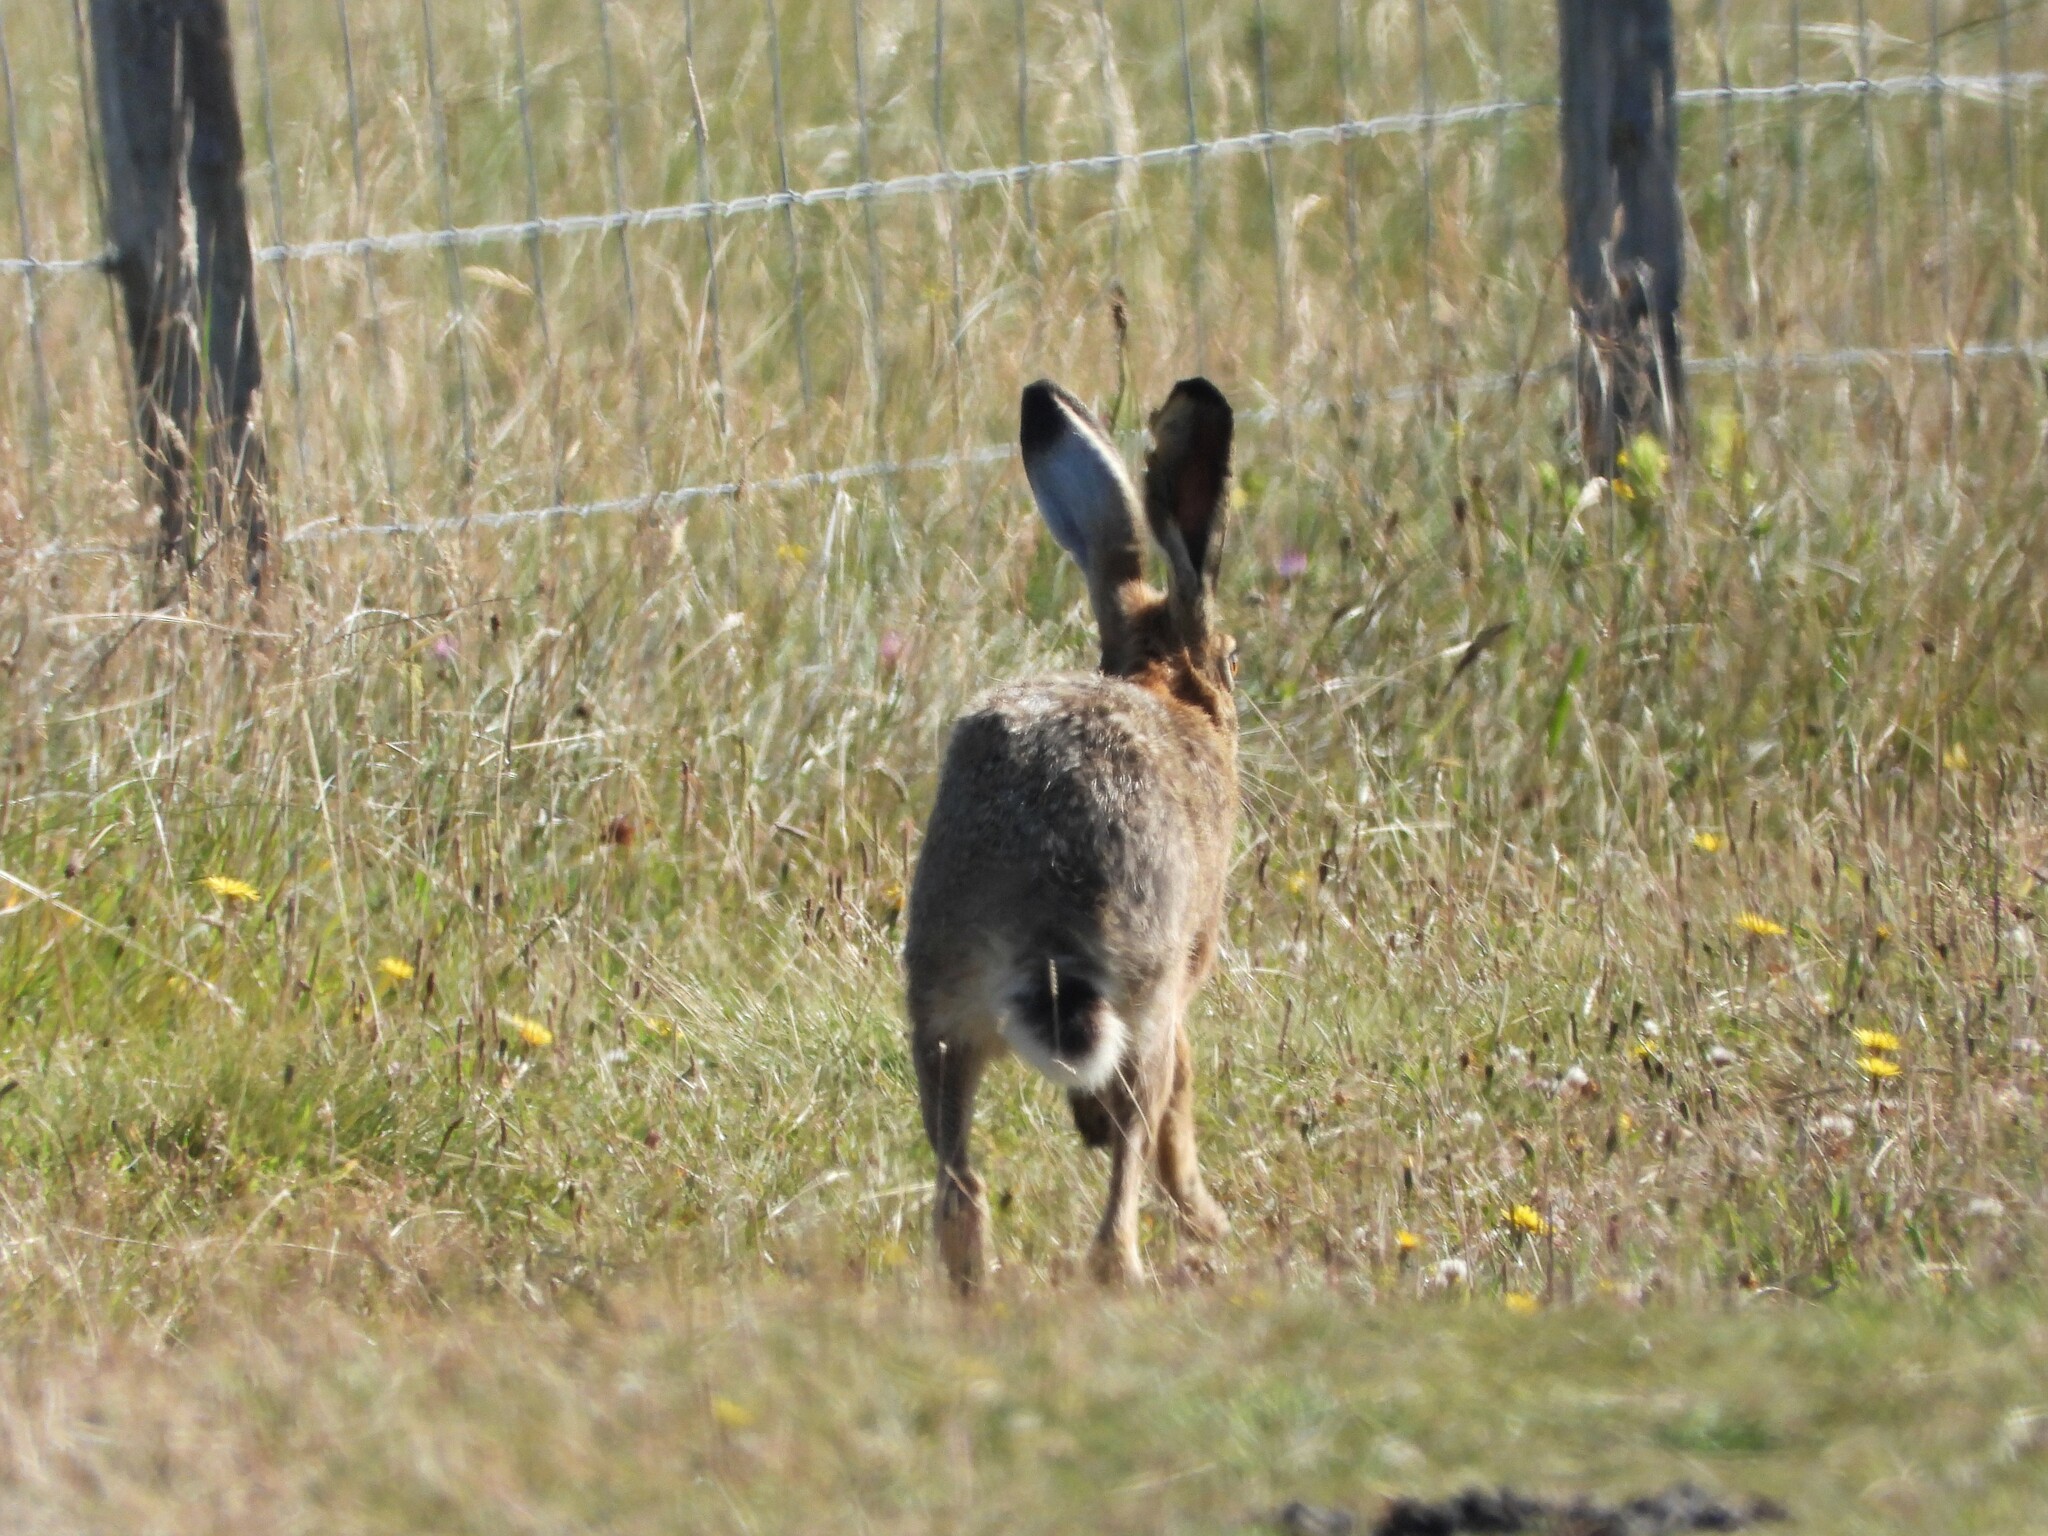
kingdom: Animalia
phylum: Chordata
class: Mammalia
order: Lagomorpha
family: Leporidae
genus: Lepus
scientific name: Lepus europaeus
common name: European hare
